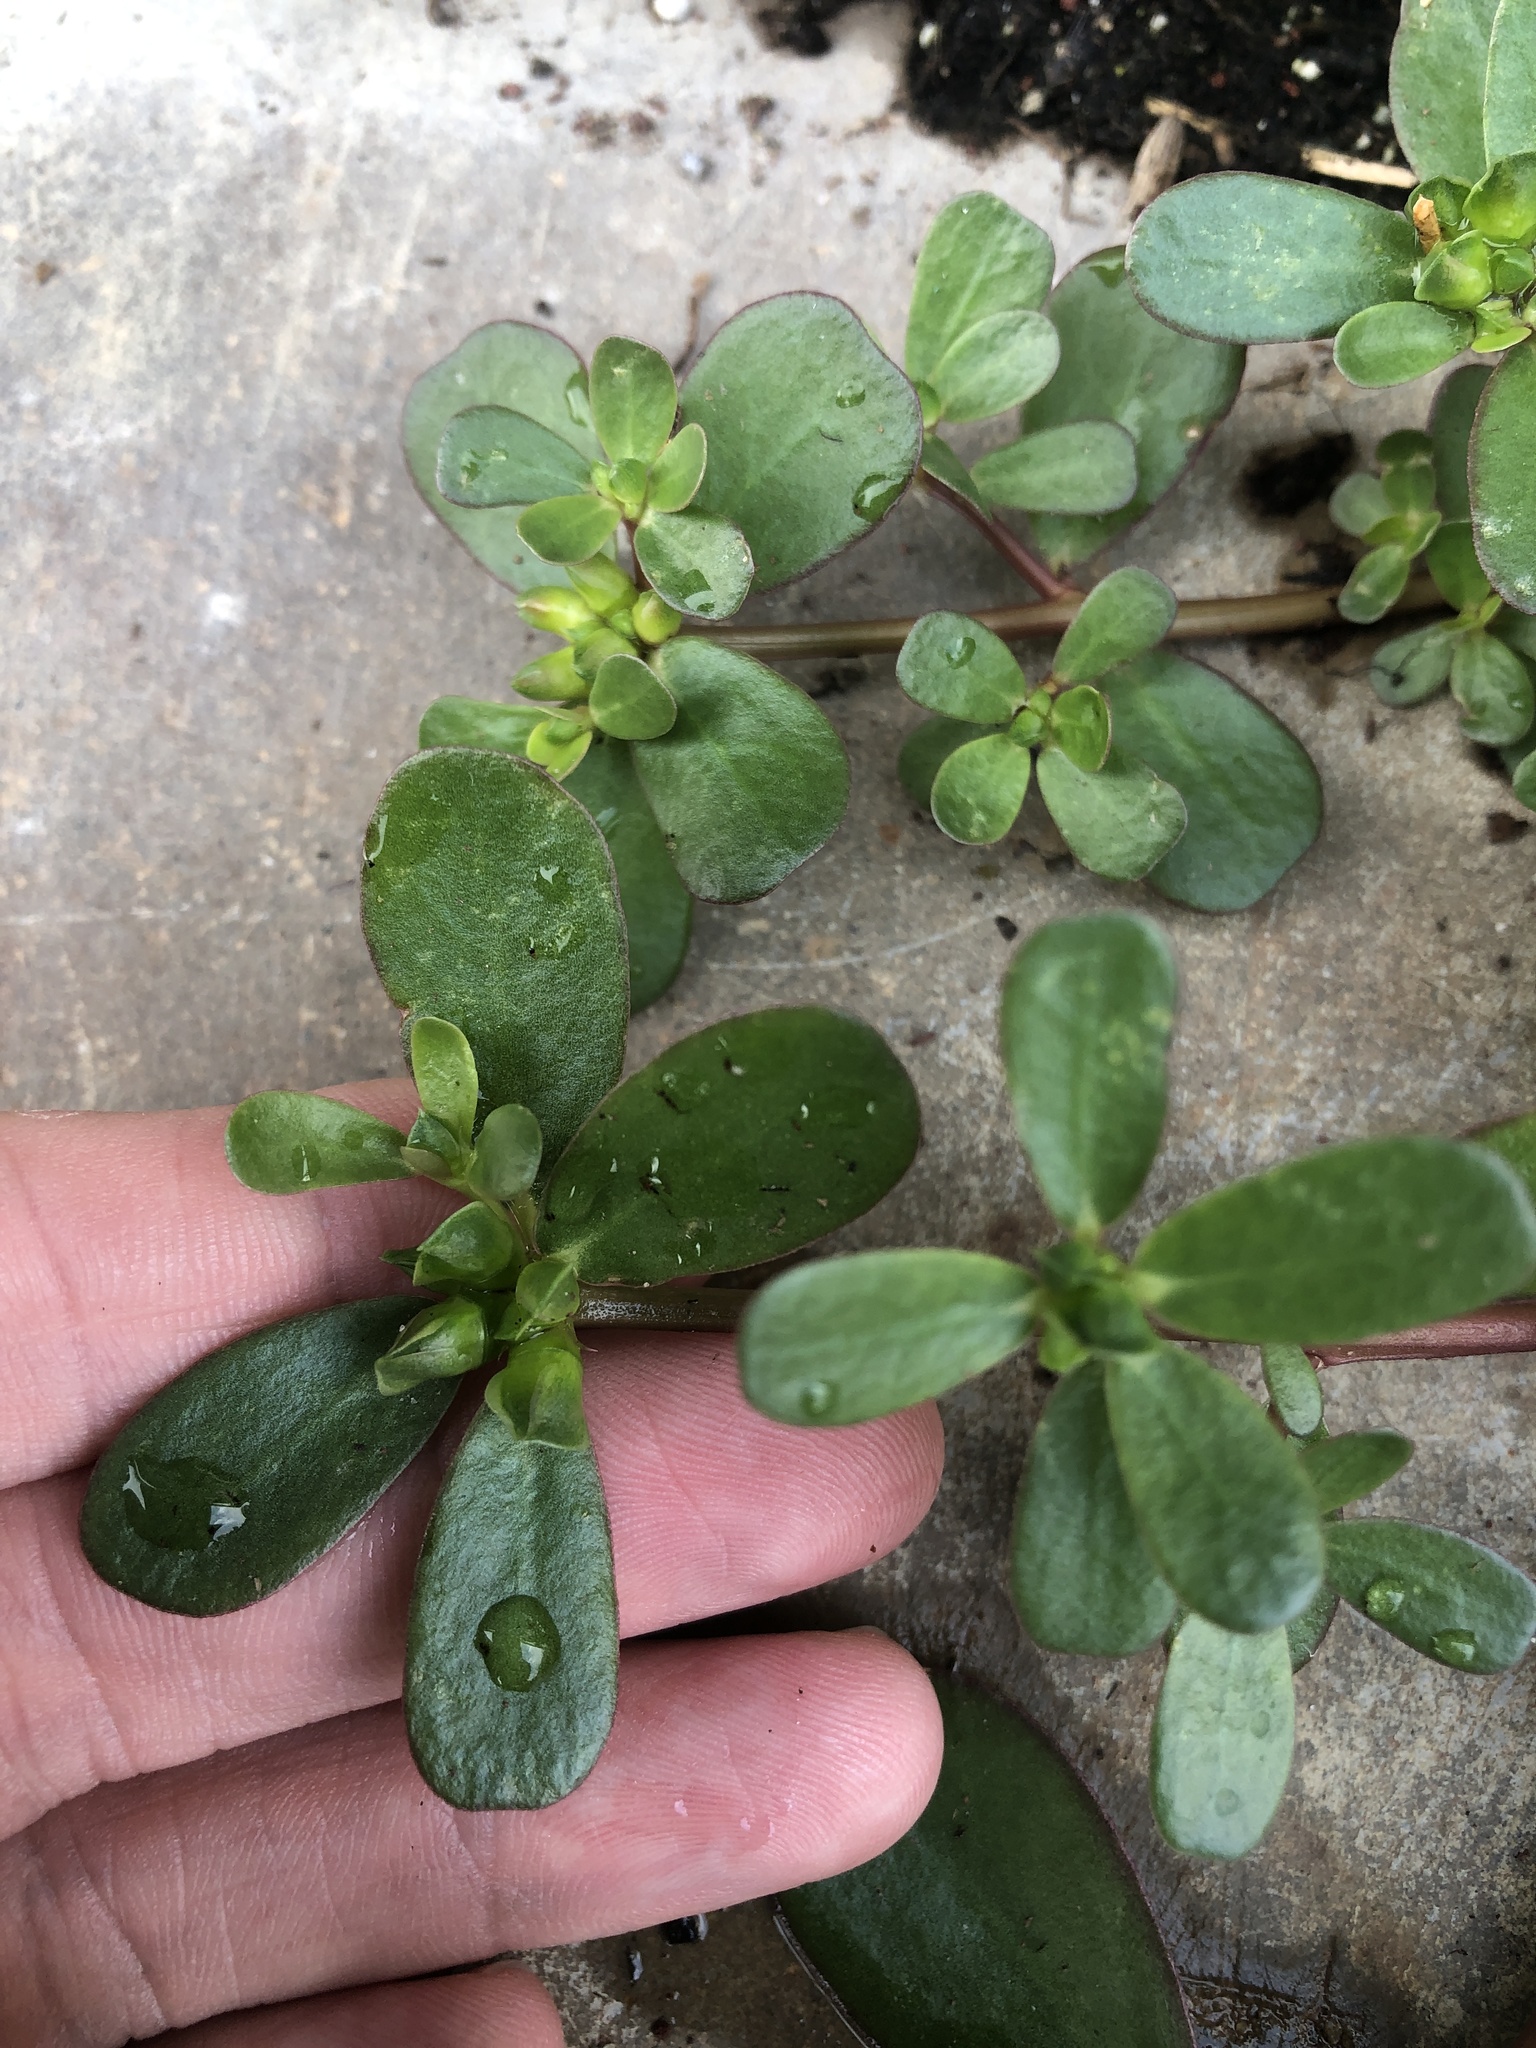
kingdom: Plantae
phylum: Tracheophyta
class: Magnoliopsida
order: Caryophyllales
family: Portulacaceae
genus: Portulaca
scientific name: Portulaca oleracea
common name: Common purslane
